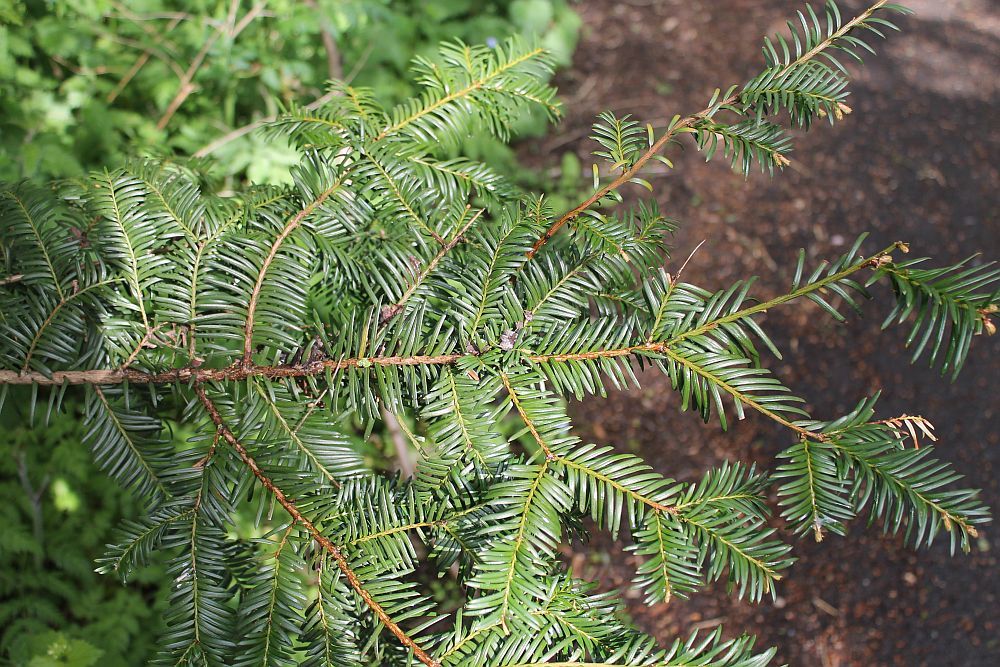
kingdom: Plantae
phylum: Tracheophyta
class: Pinopsida
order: Pinales
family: Taxaceae
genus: Taxus
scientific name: Taxus baccata
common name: Yew
